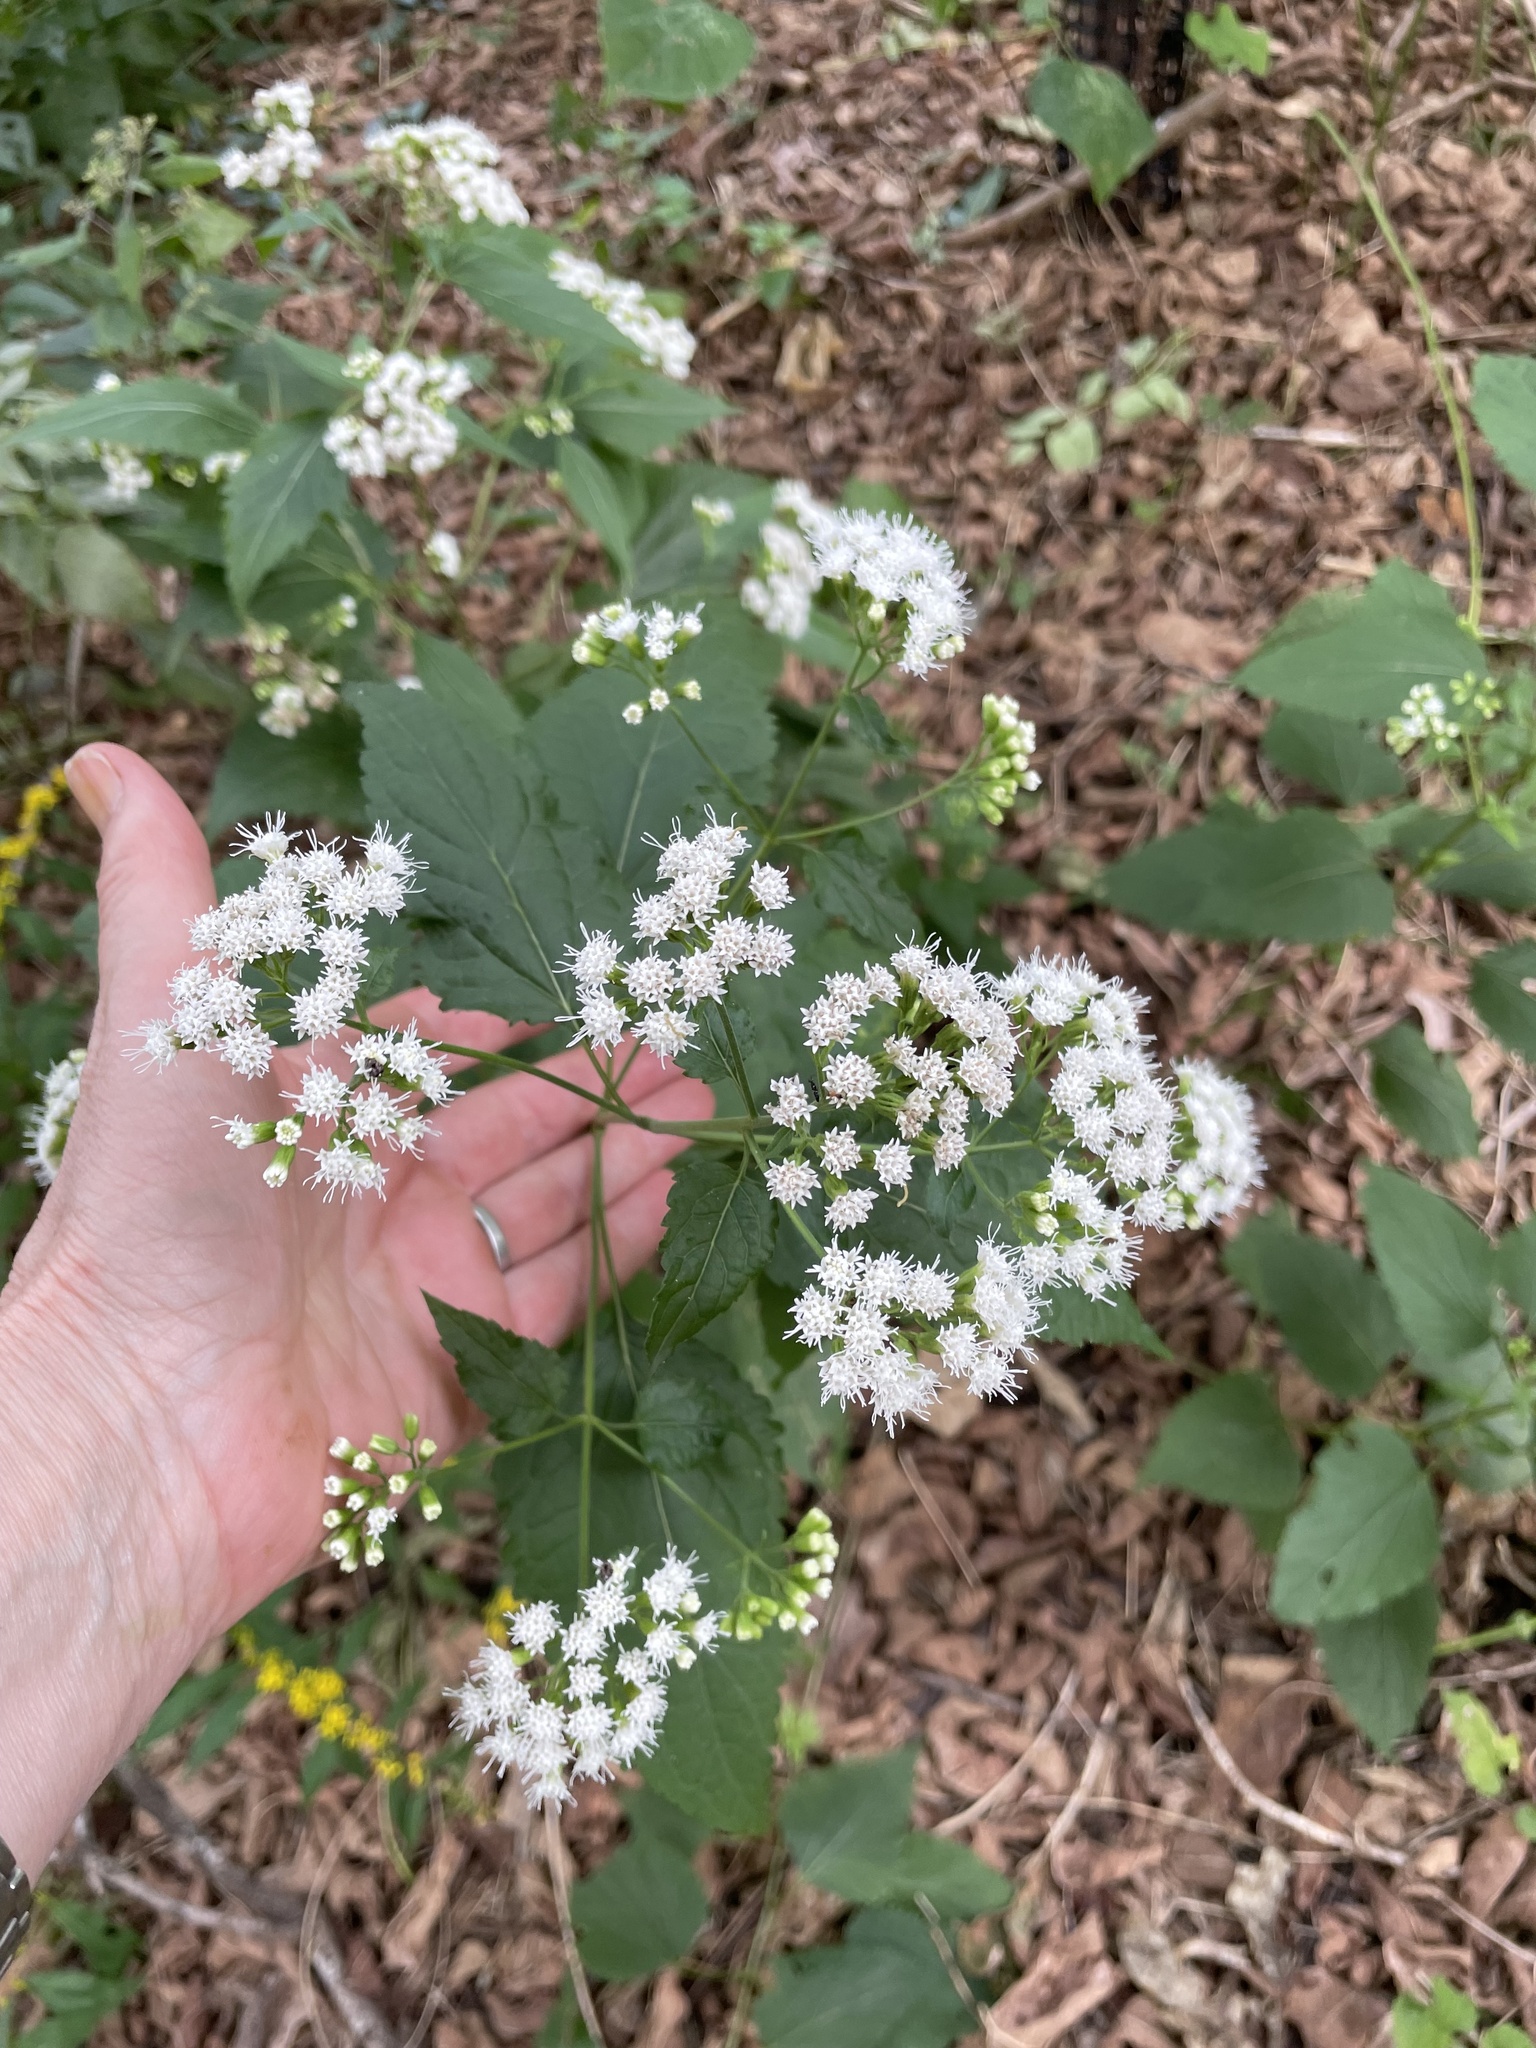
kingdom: Plantae
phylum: Tracheophyta
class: Magnoliopsida
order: Asterales
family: Asteraceae
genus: Ageratina
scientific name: Ageratina altissima
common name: White snakeroot
